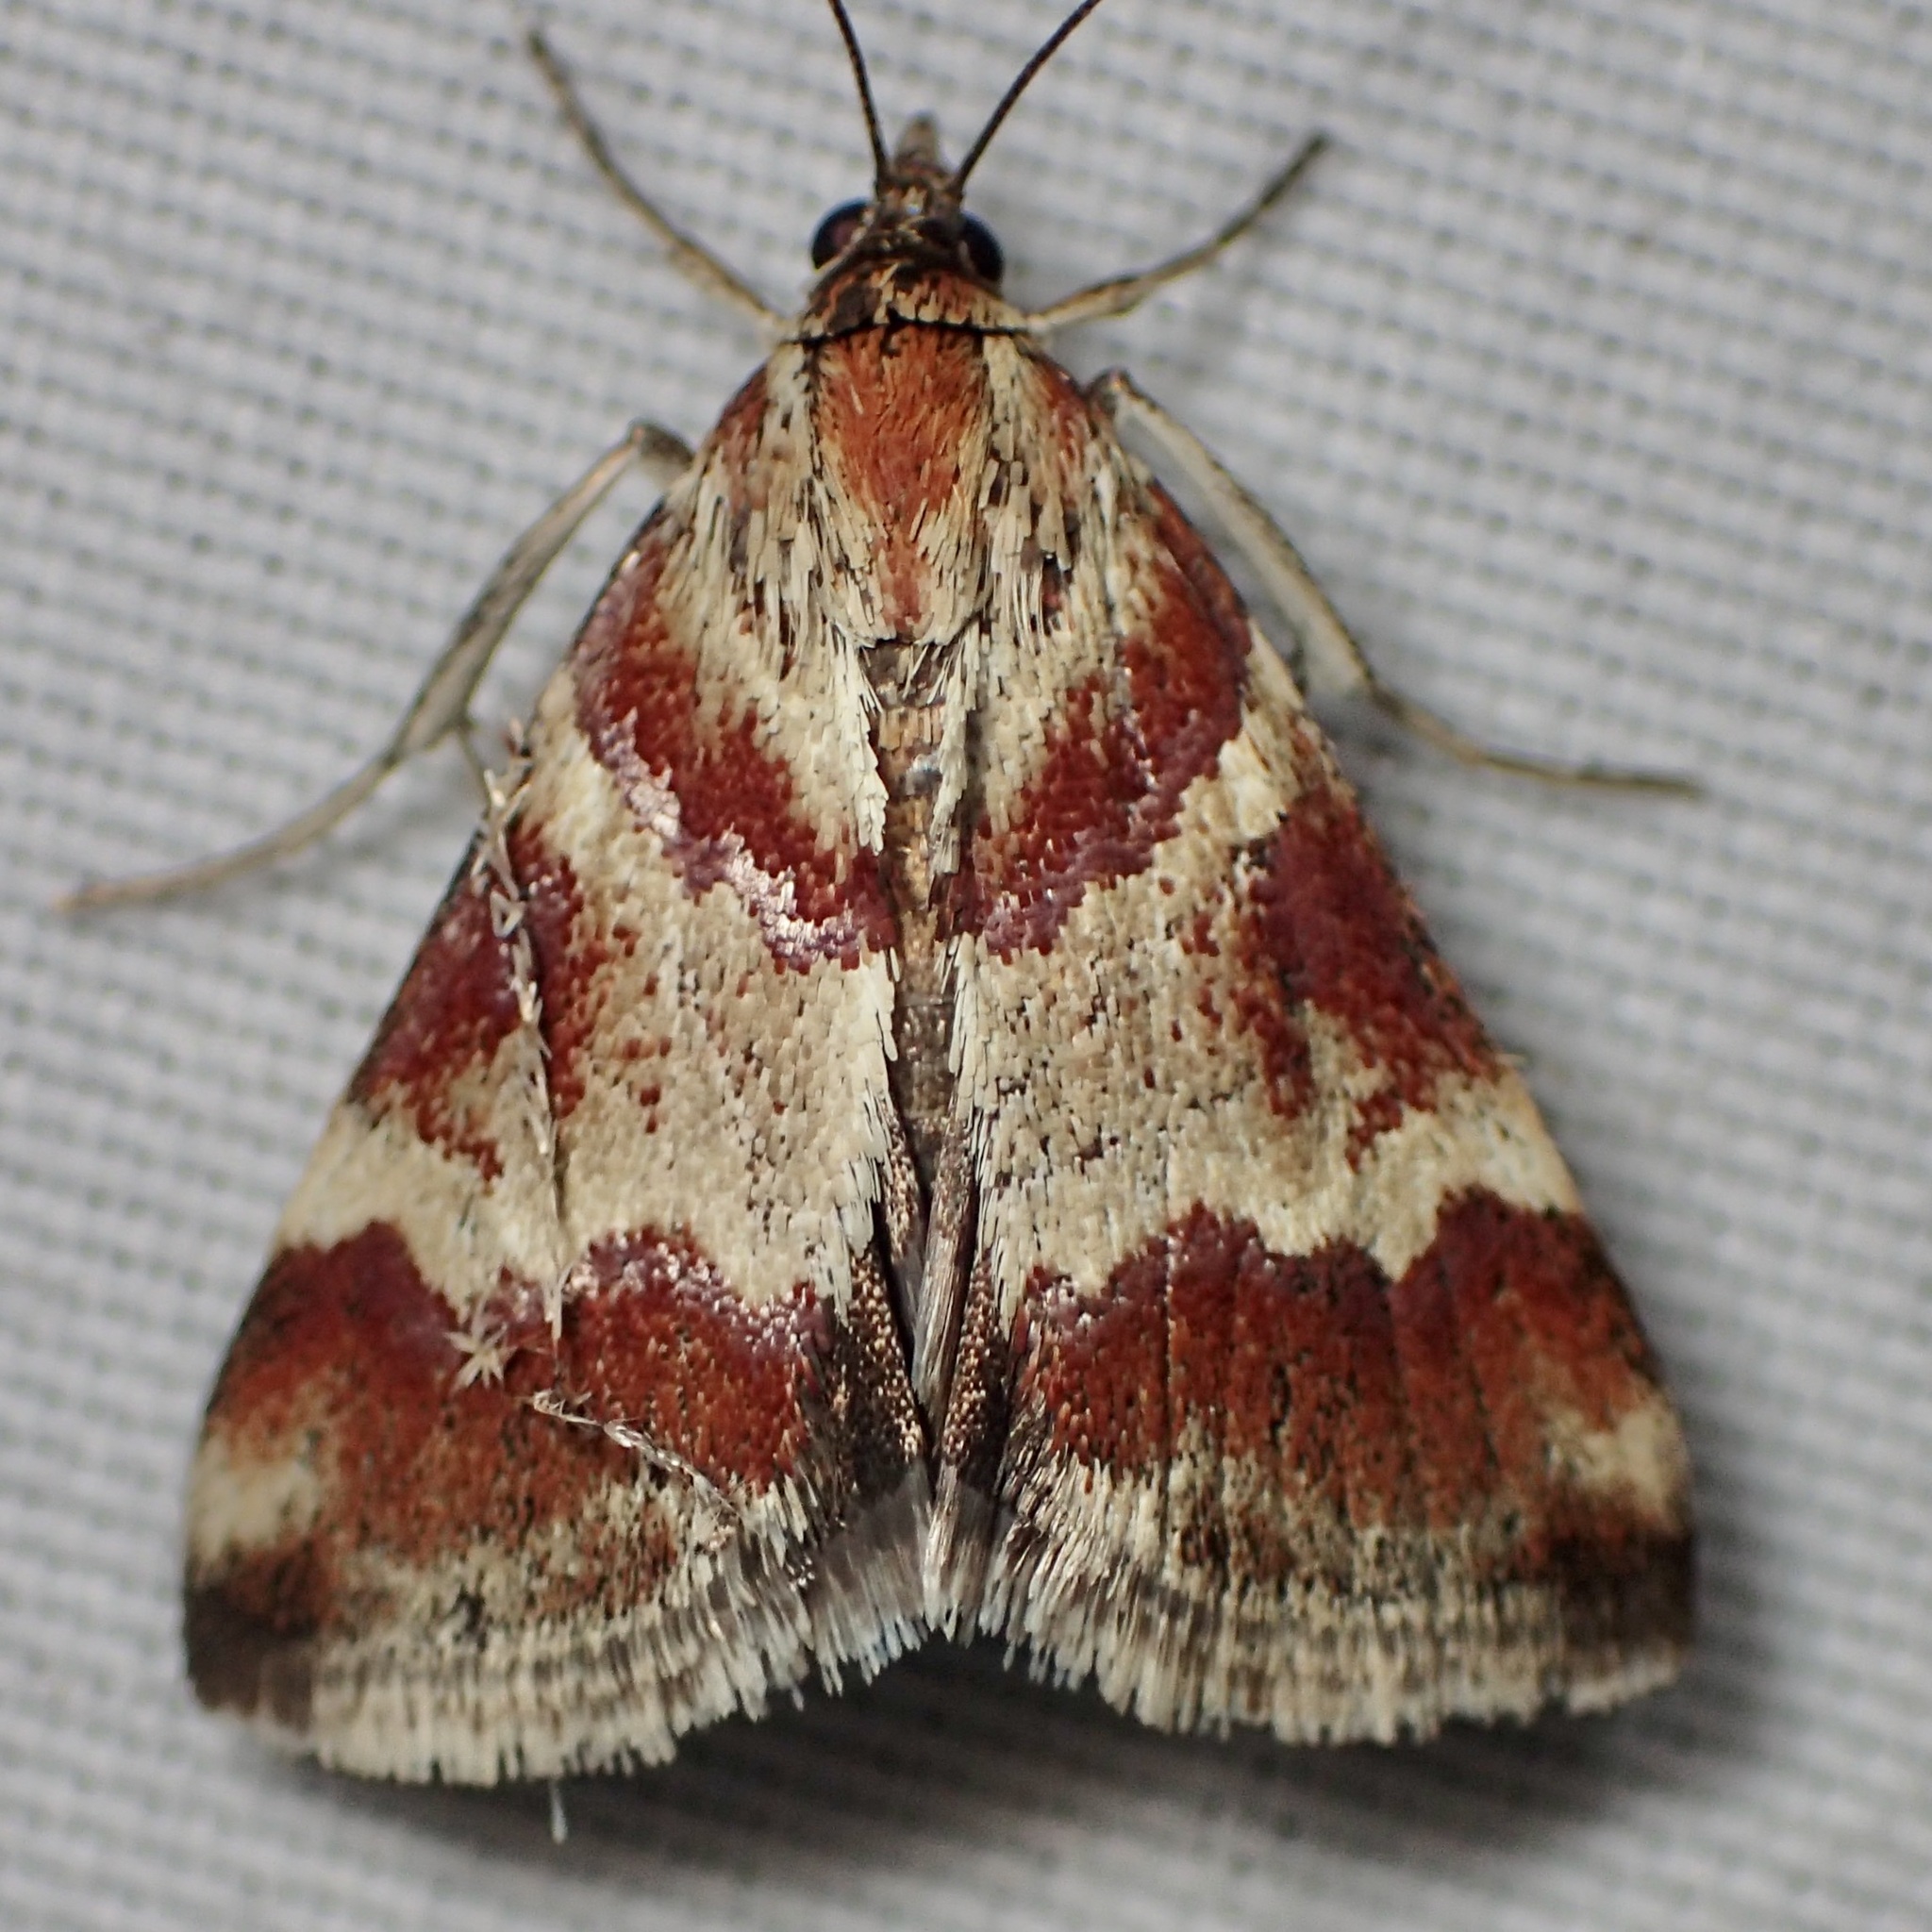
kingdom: Animalia
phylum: Arthropoda
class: Insecta
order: Lepidoptera
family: Crambidae
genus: Noctuelia
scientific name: Noctuelia Mimoschinia rufofascialis
